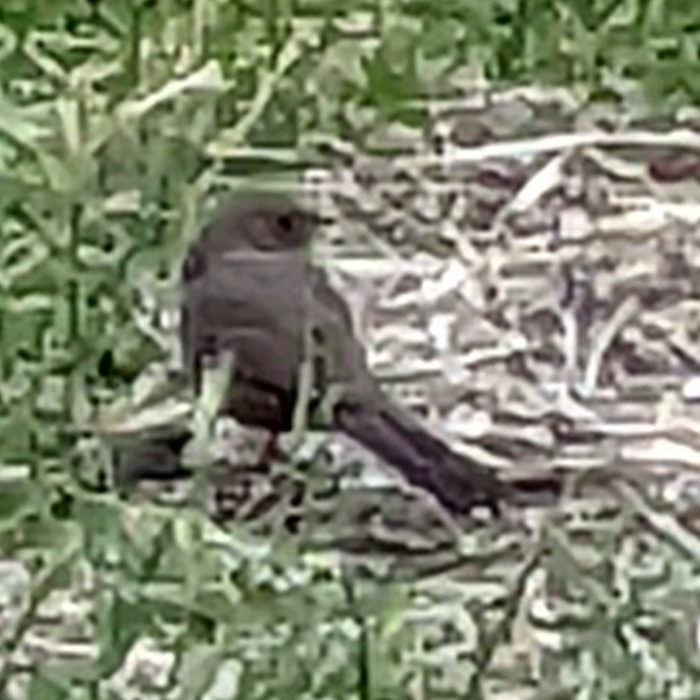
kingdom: Animalia
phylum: Chordata
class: Aves
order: Passeriformes
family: Passerellidae
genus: Melozone
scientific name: Melozone crissalis
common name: California towhee
